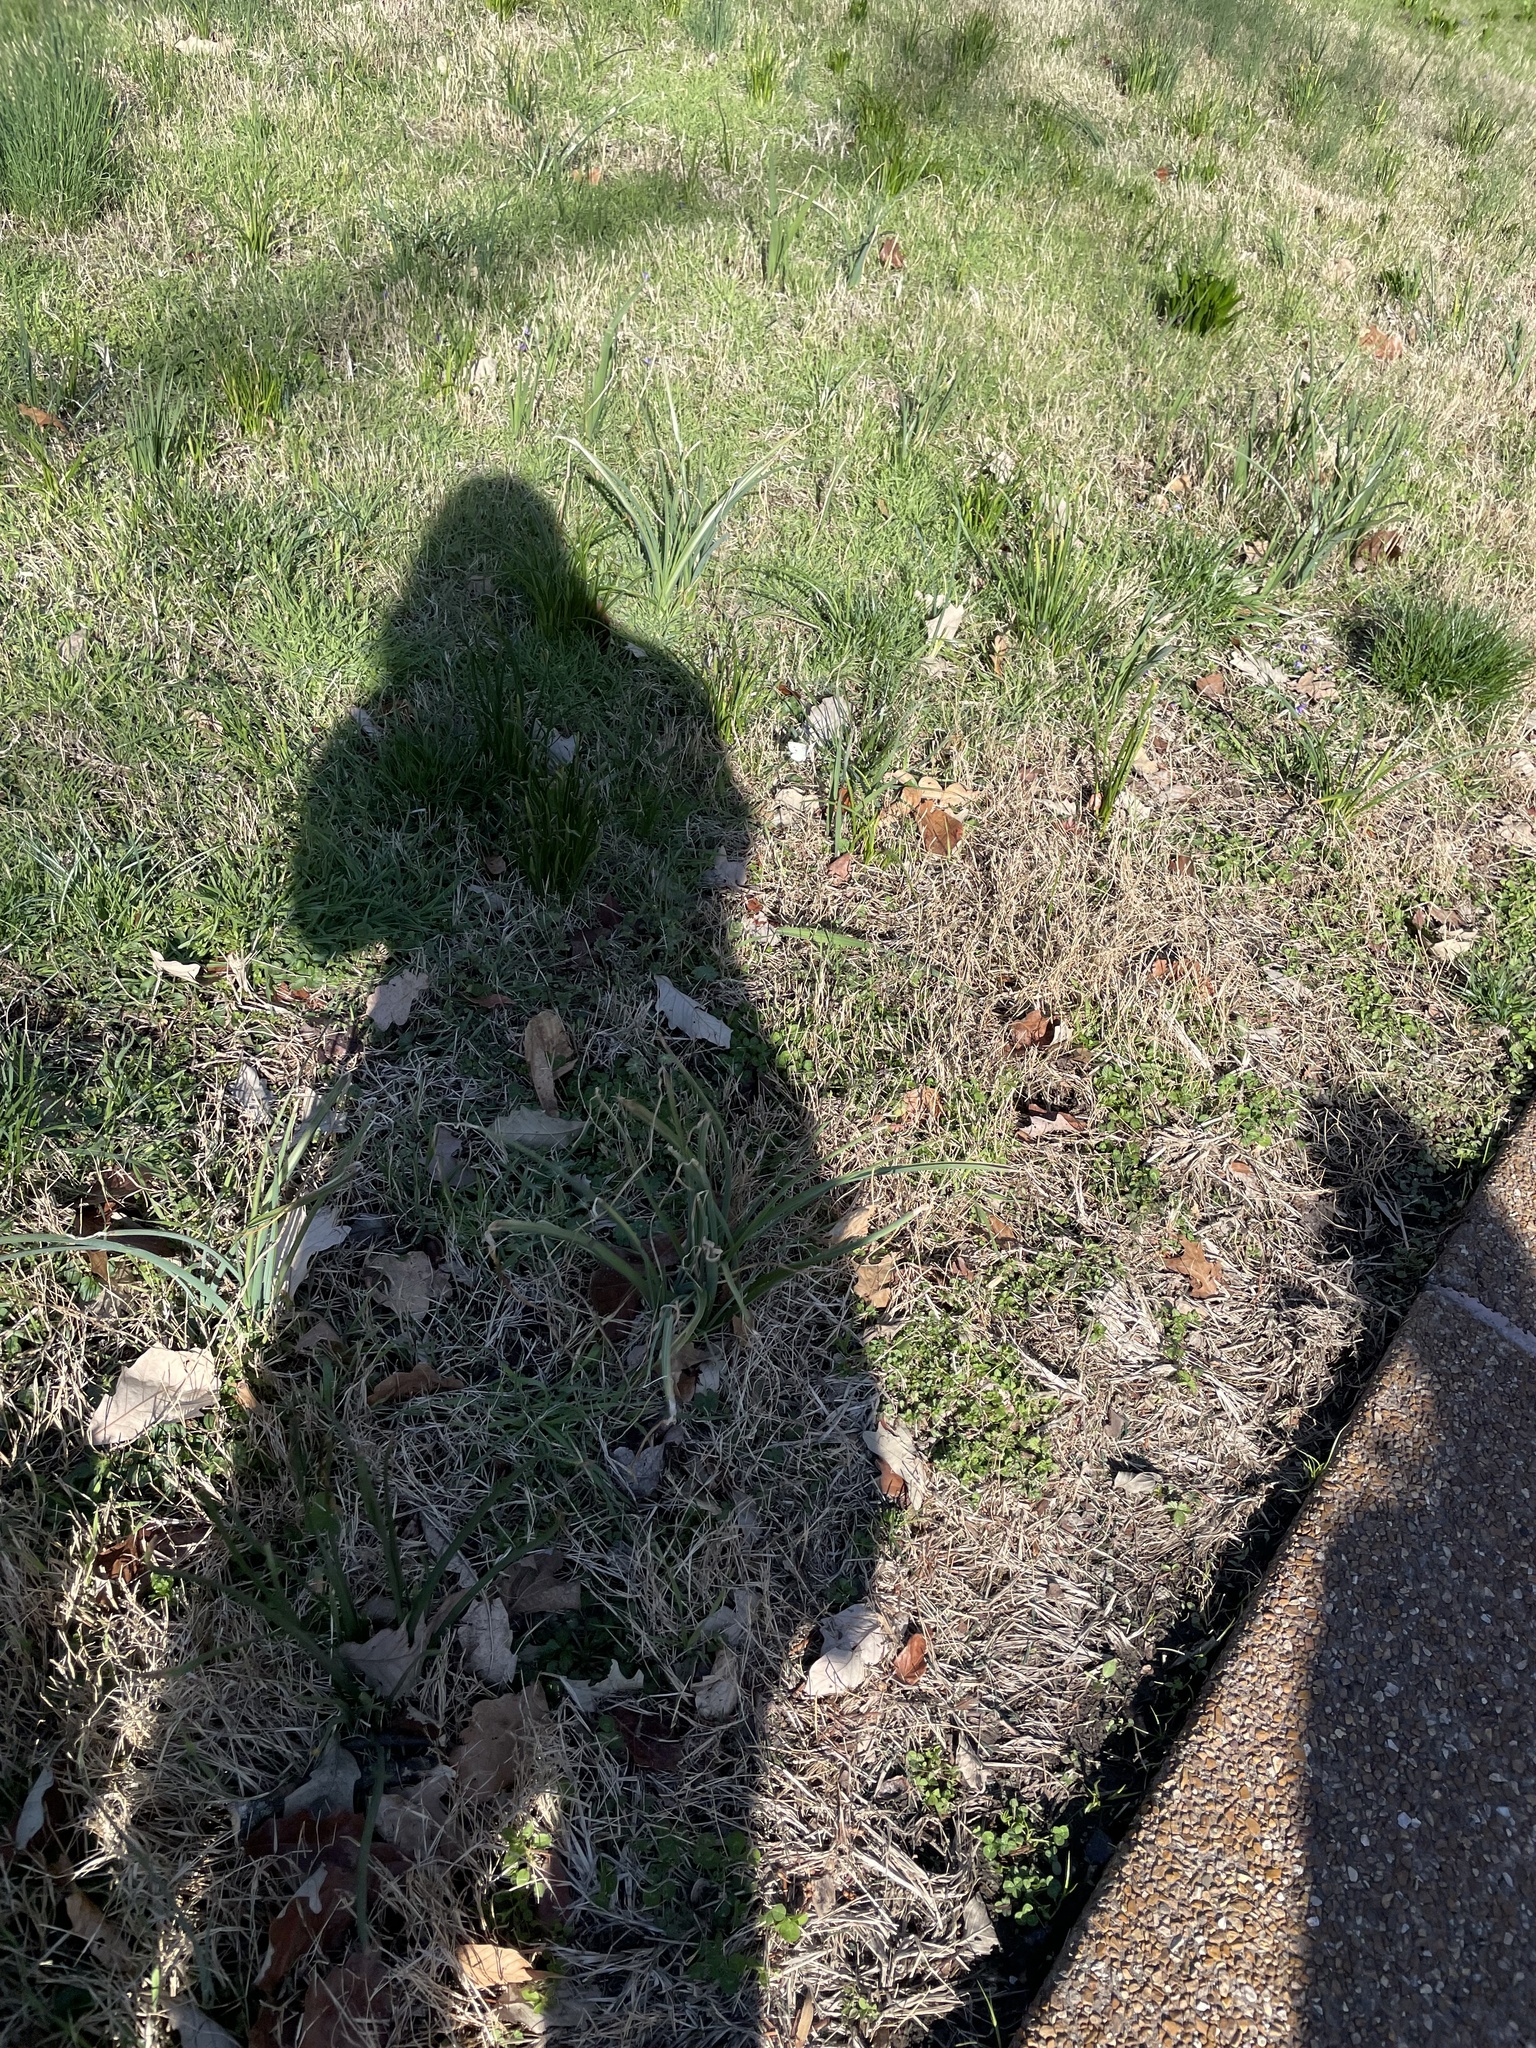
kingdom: Animalia
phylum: Arthropoda
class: Insecta
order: Lepidoptera
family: Pieridae
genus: Pieris
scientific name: Pieris rapae
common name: Small white
